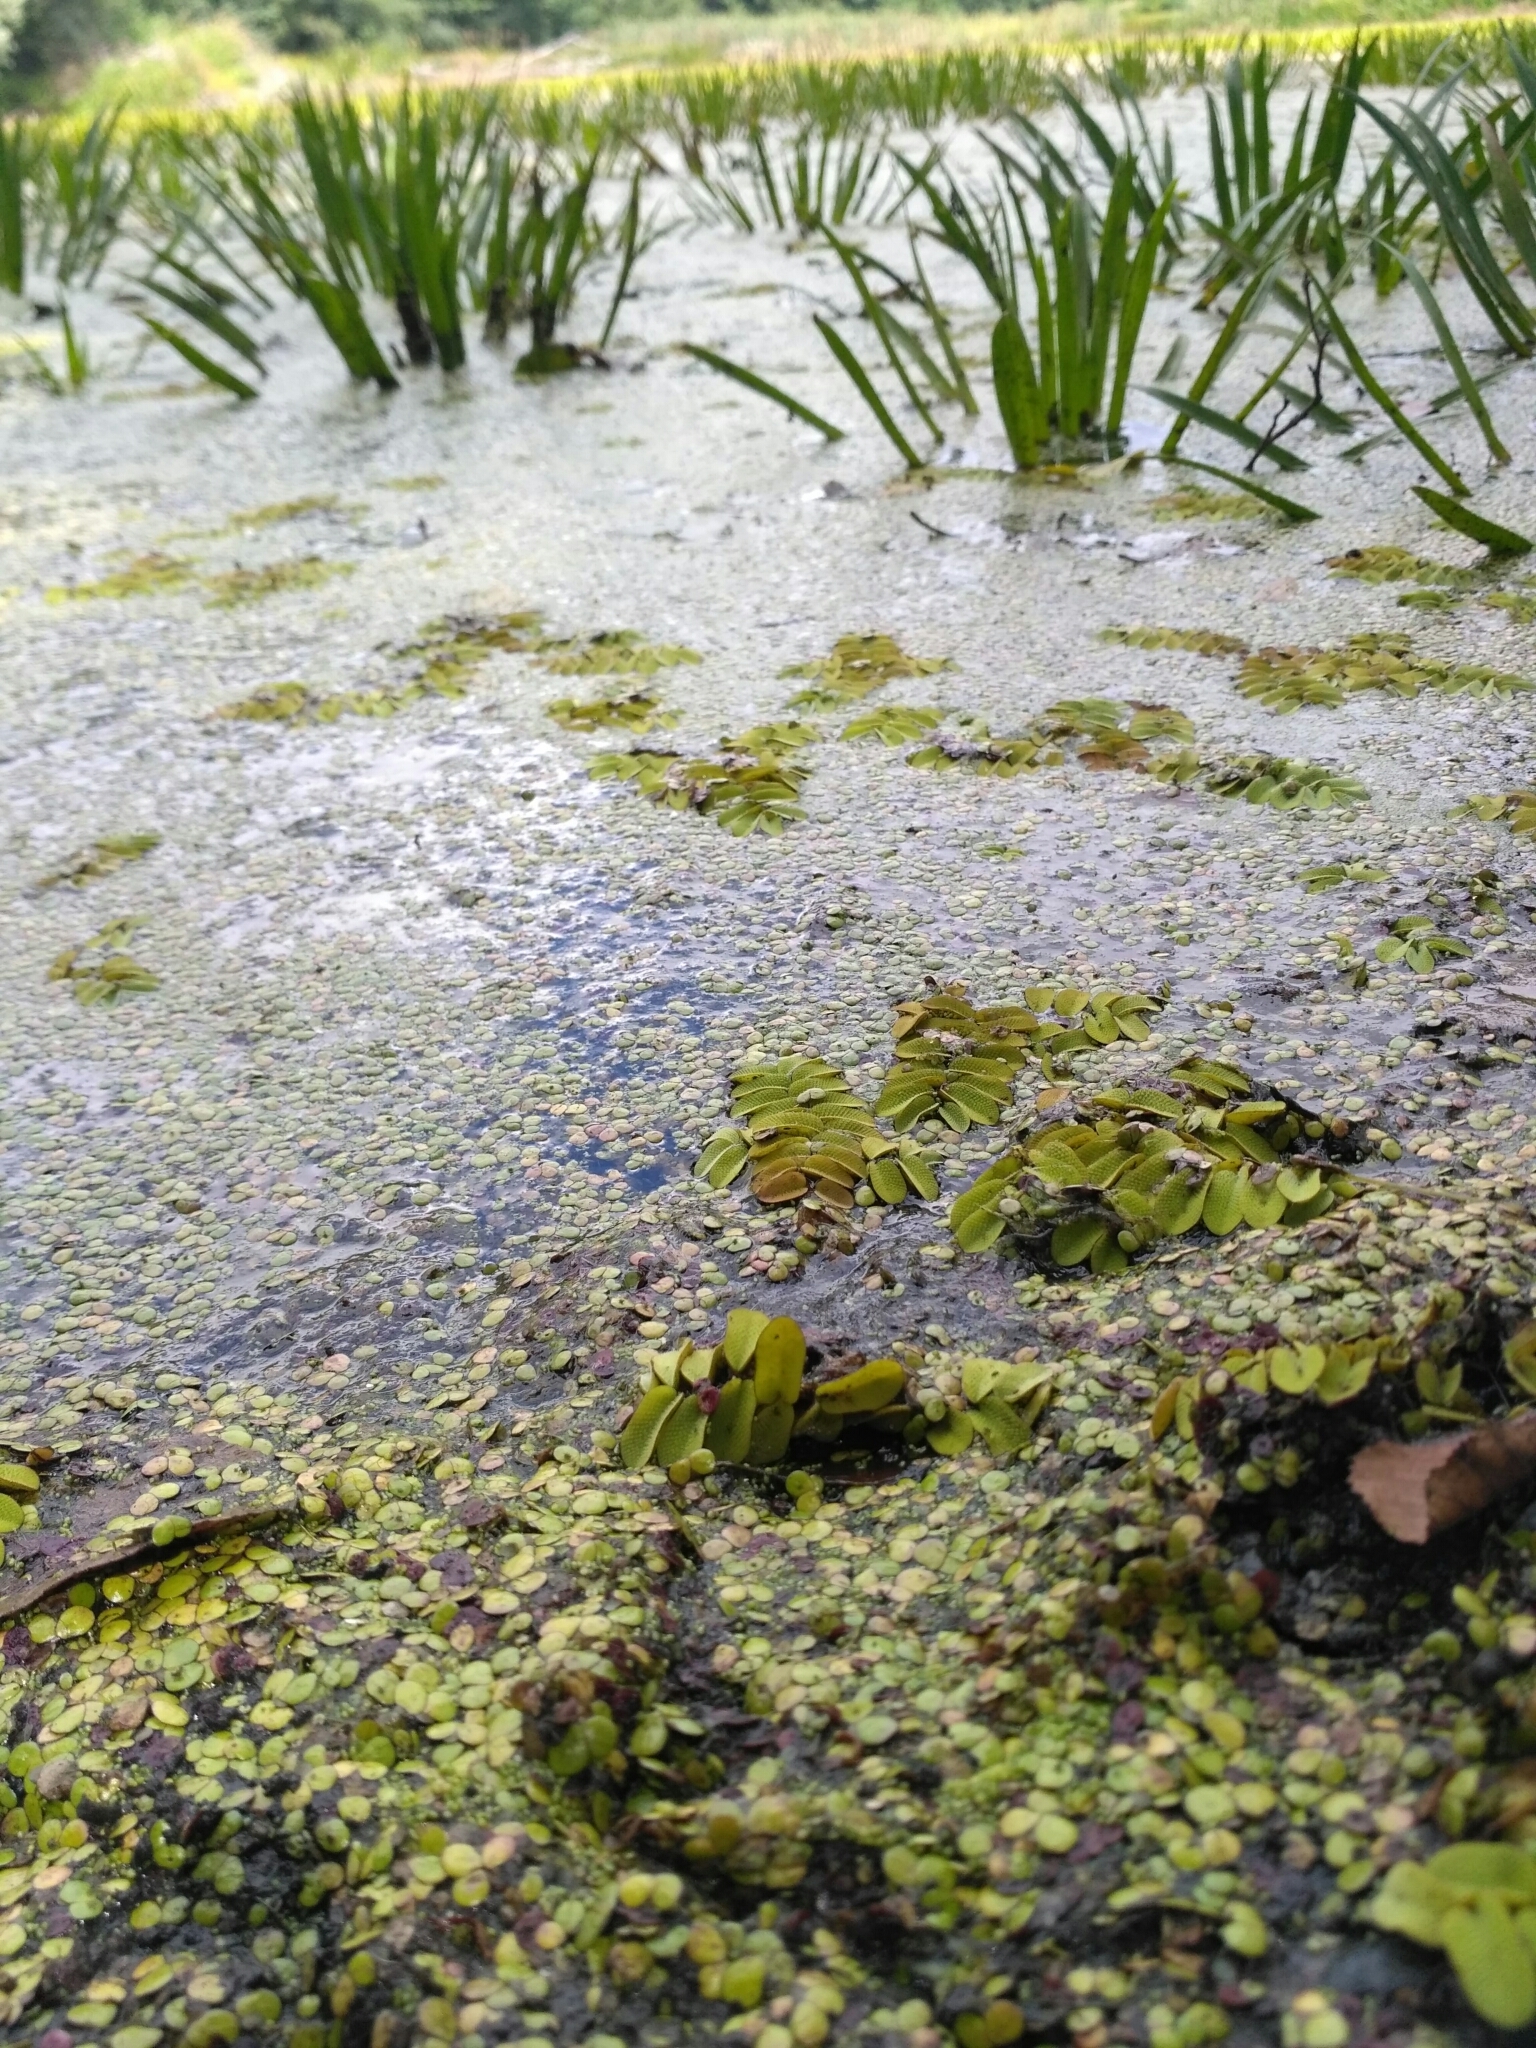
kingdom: Plantae
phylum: Tracheophyta
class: Polypodiopsida
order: Salviniales
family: Salviniaceae
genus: Salvinia
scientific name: Salvinia natans
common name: Floating fern
